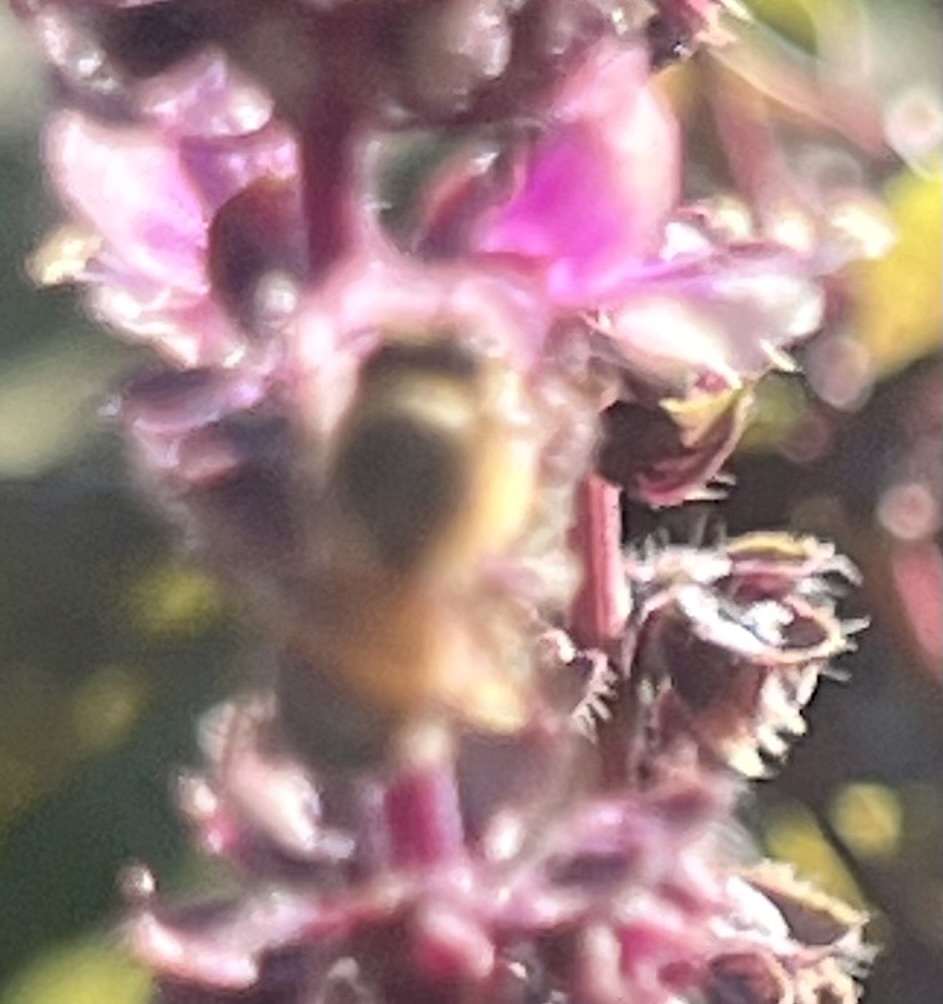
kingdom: Animalia
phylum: Arthropoda
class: Insecta
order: Hymenoptera
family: Apidae
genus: Apis
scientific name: Apis mellifera
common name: Honey bee
